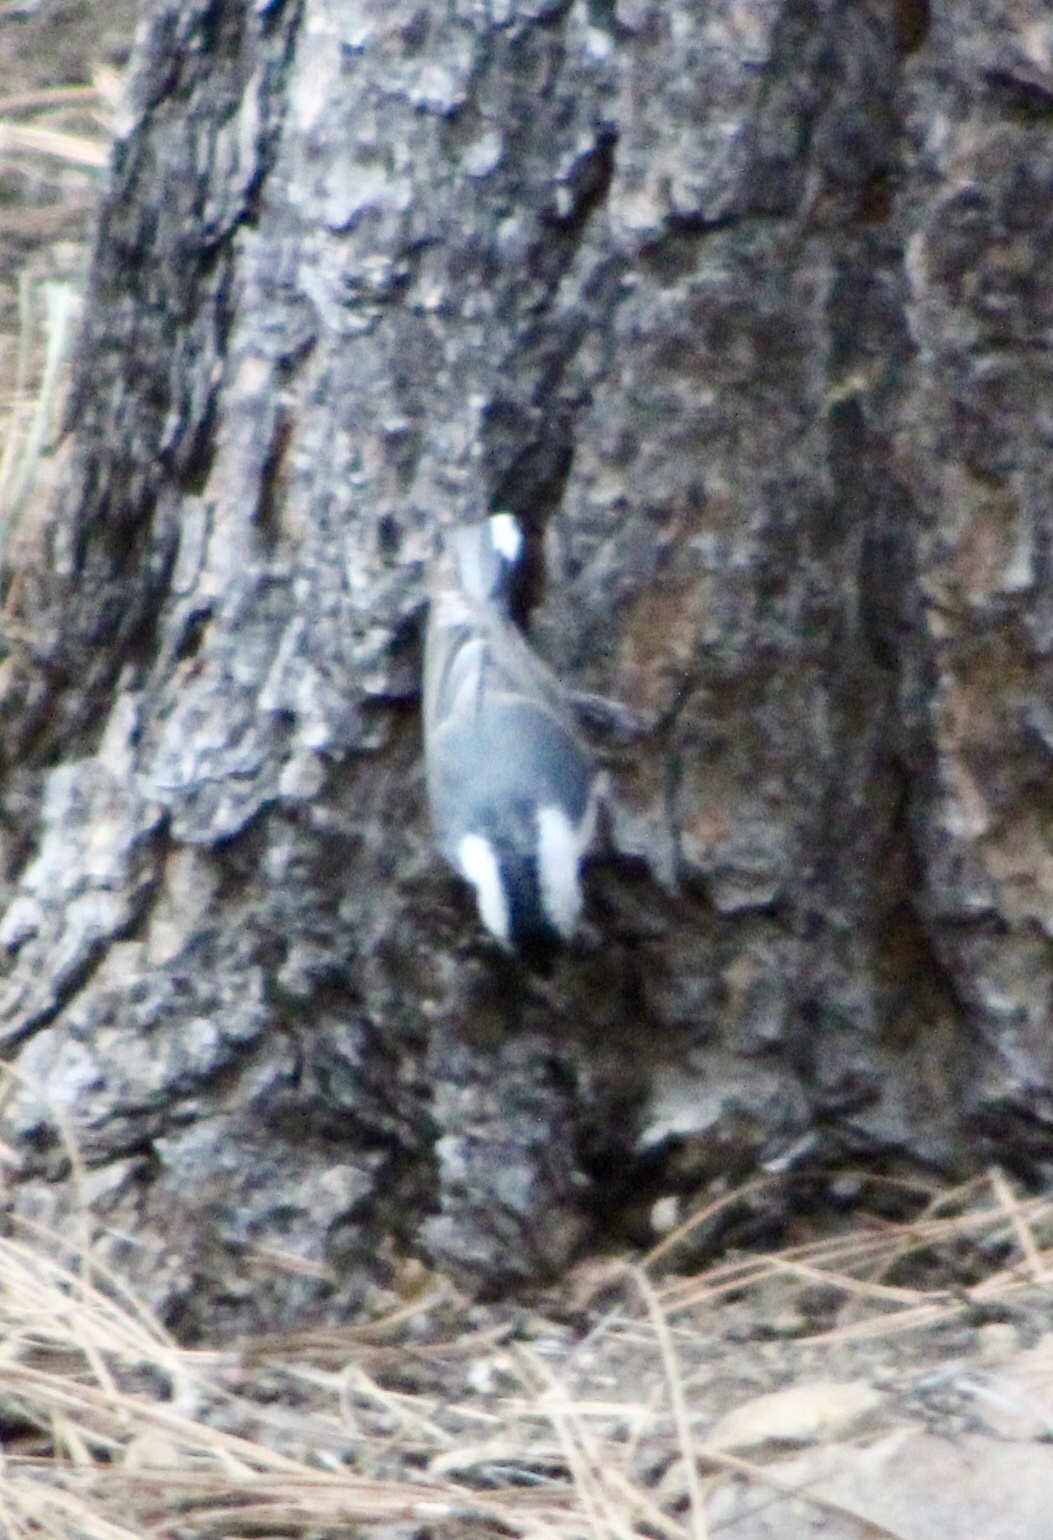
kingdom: Animalia
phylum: Chordata
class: Aves
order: Passeriformes
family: Sittidae
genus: Sitta
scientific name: Sitta carolinensis
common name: White-breasted nuthatch
